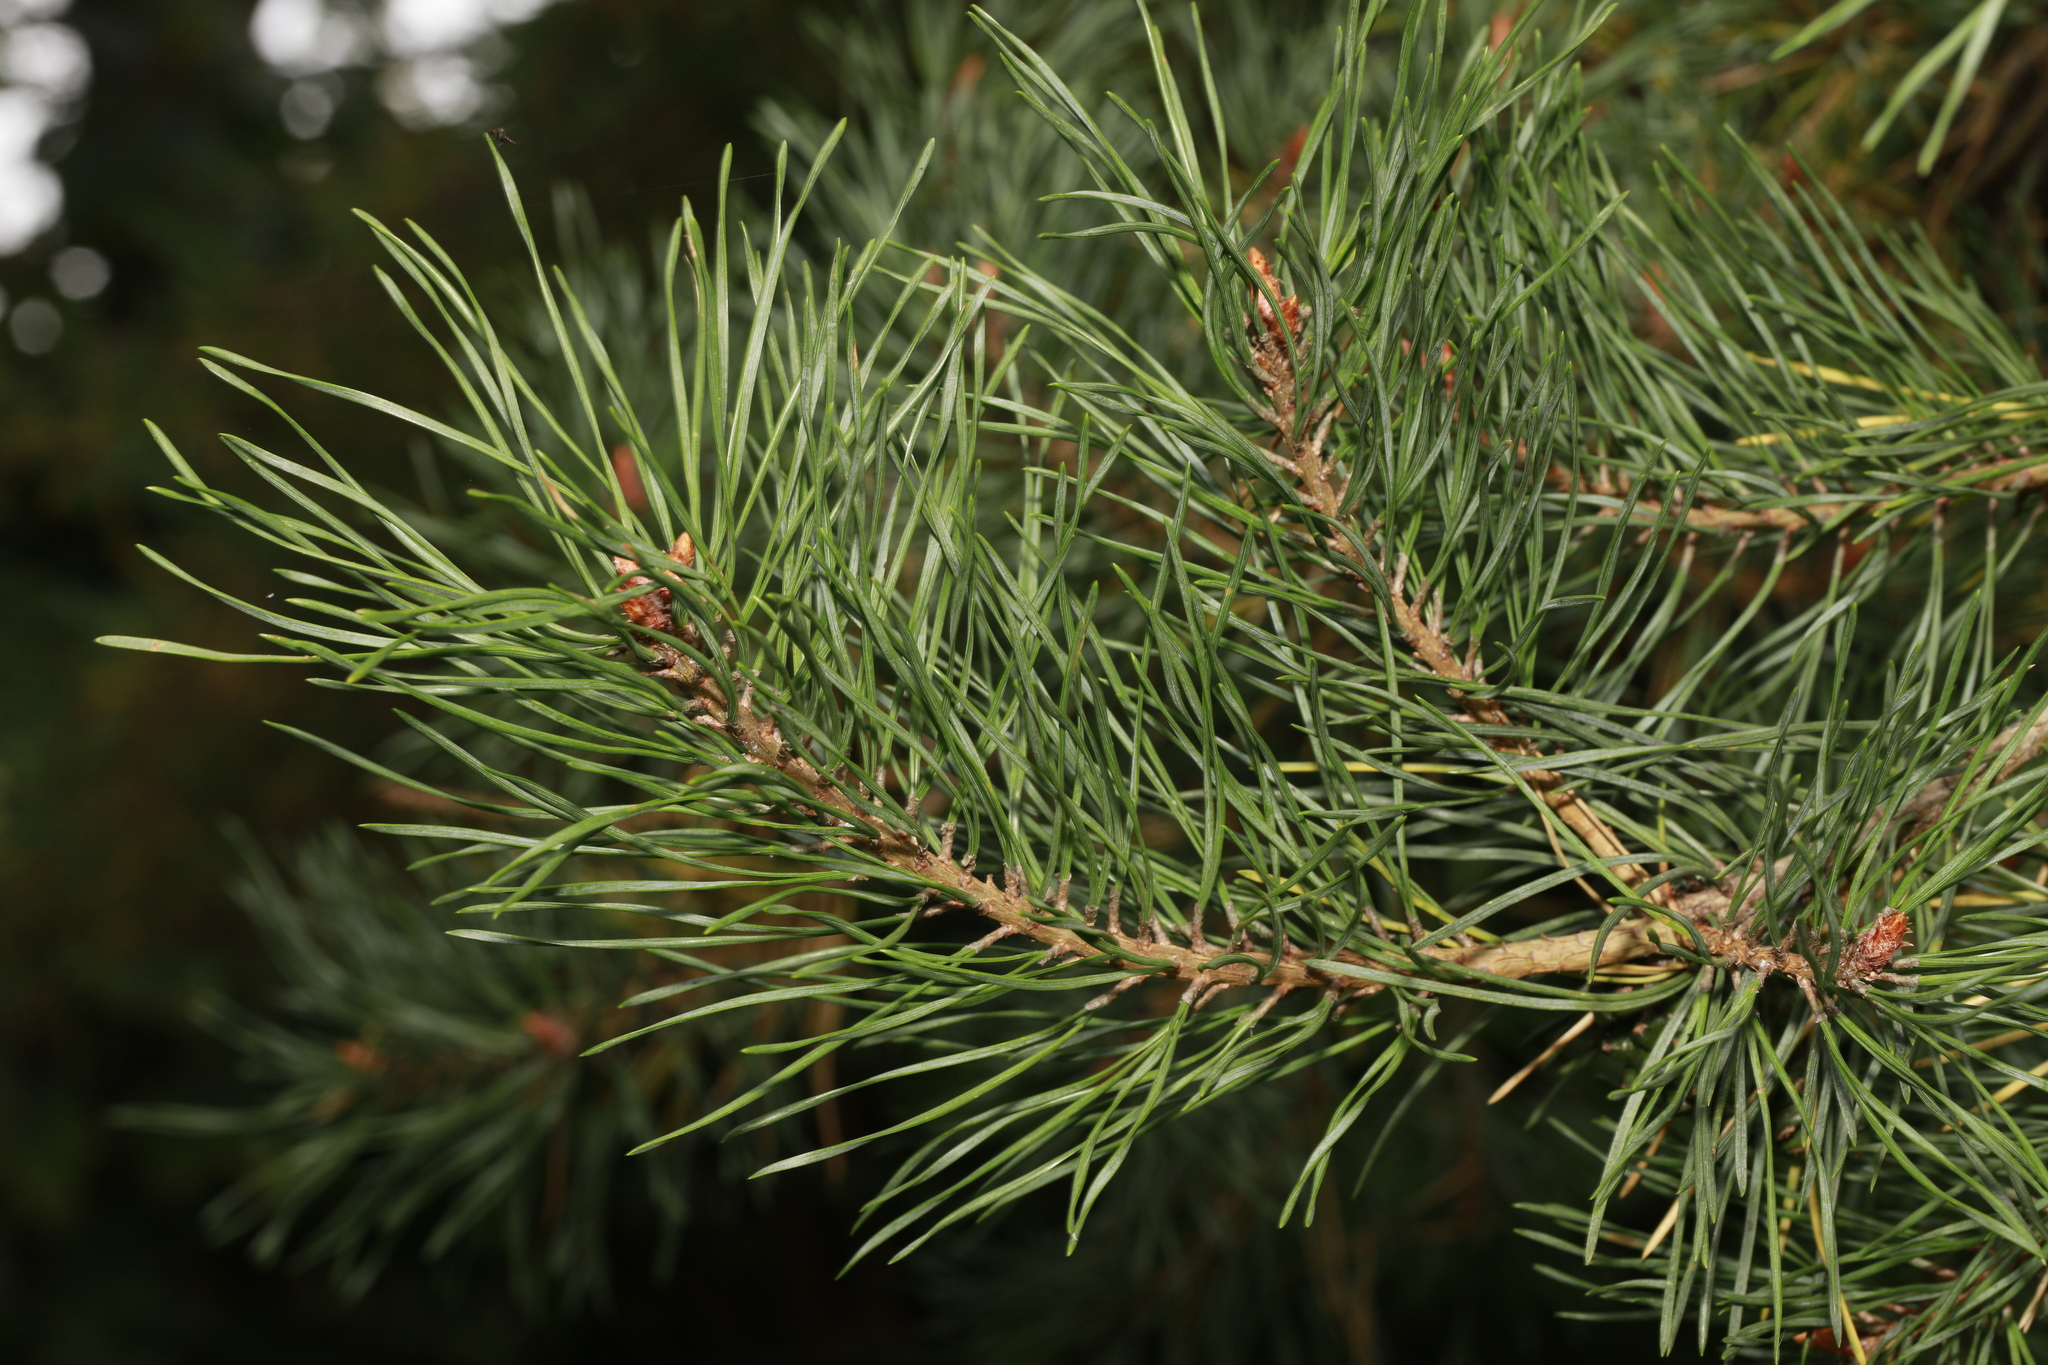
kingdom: Plantae
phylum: Tracheophyta
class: Pinopsida
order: Pinales
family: Pinaceae
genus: Pinus
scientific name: Pinus sylvestris
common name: Scots pine
